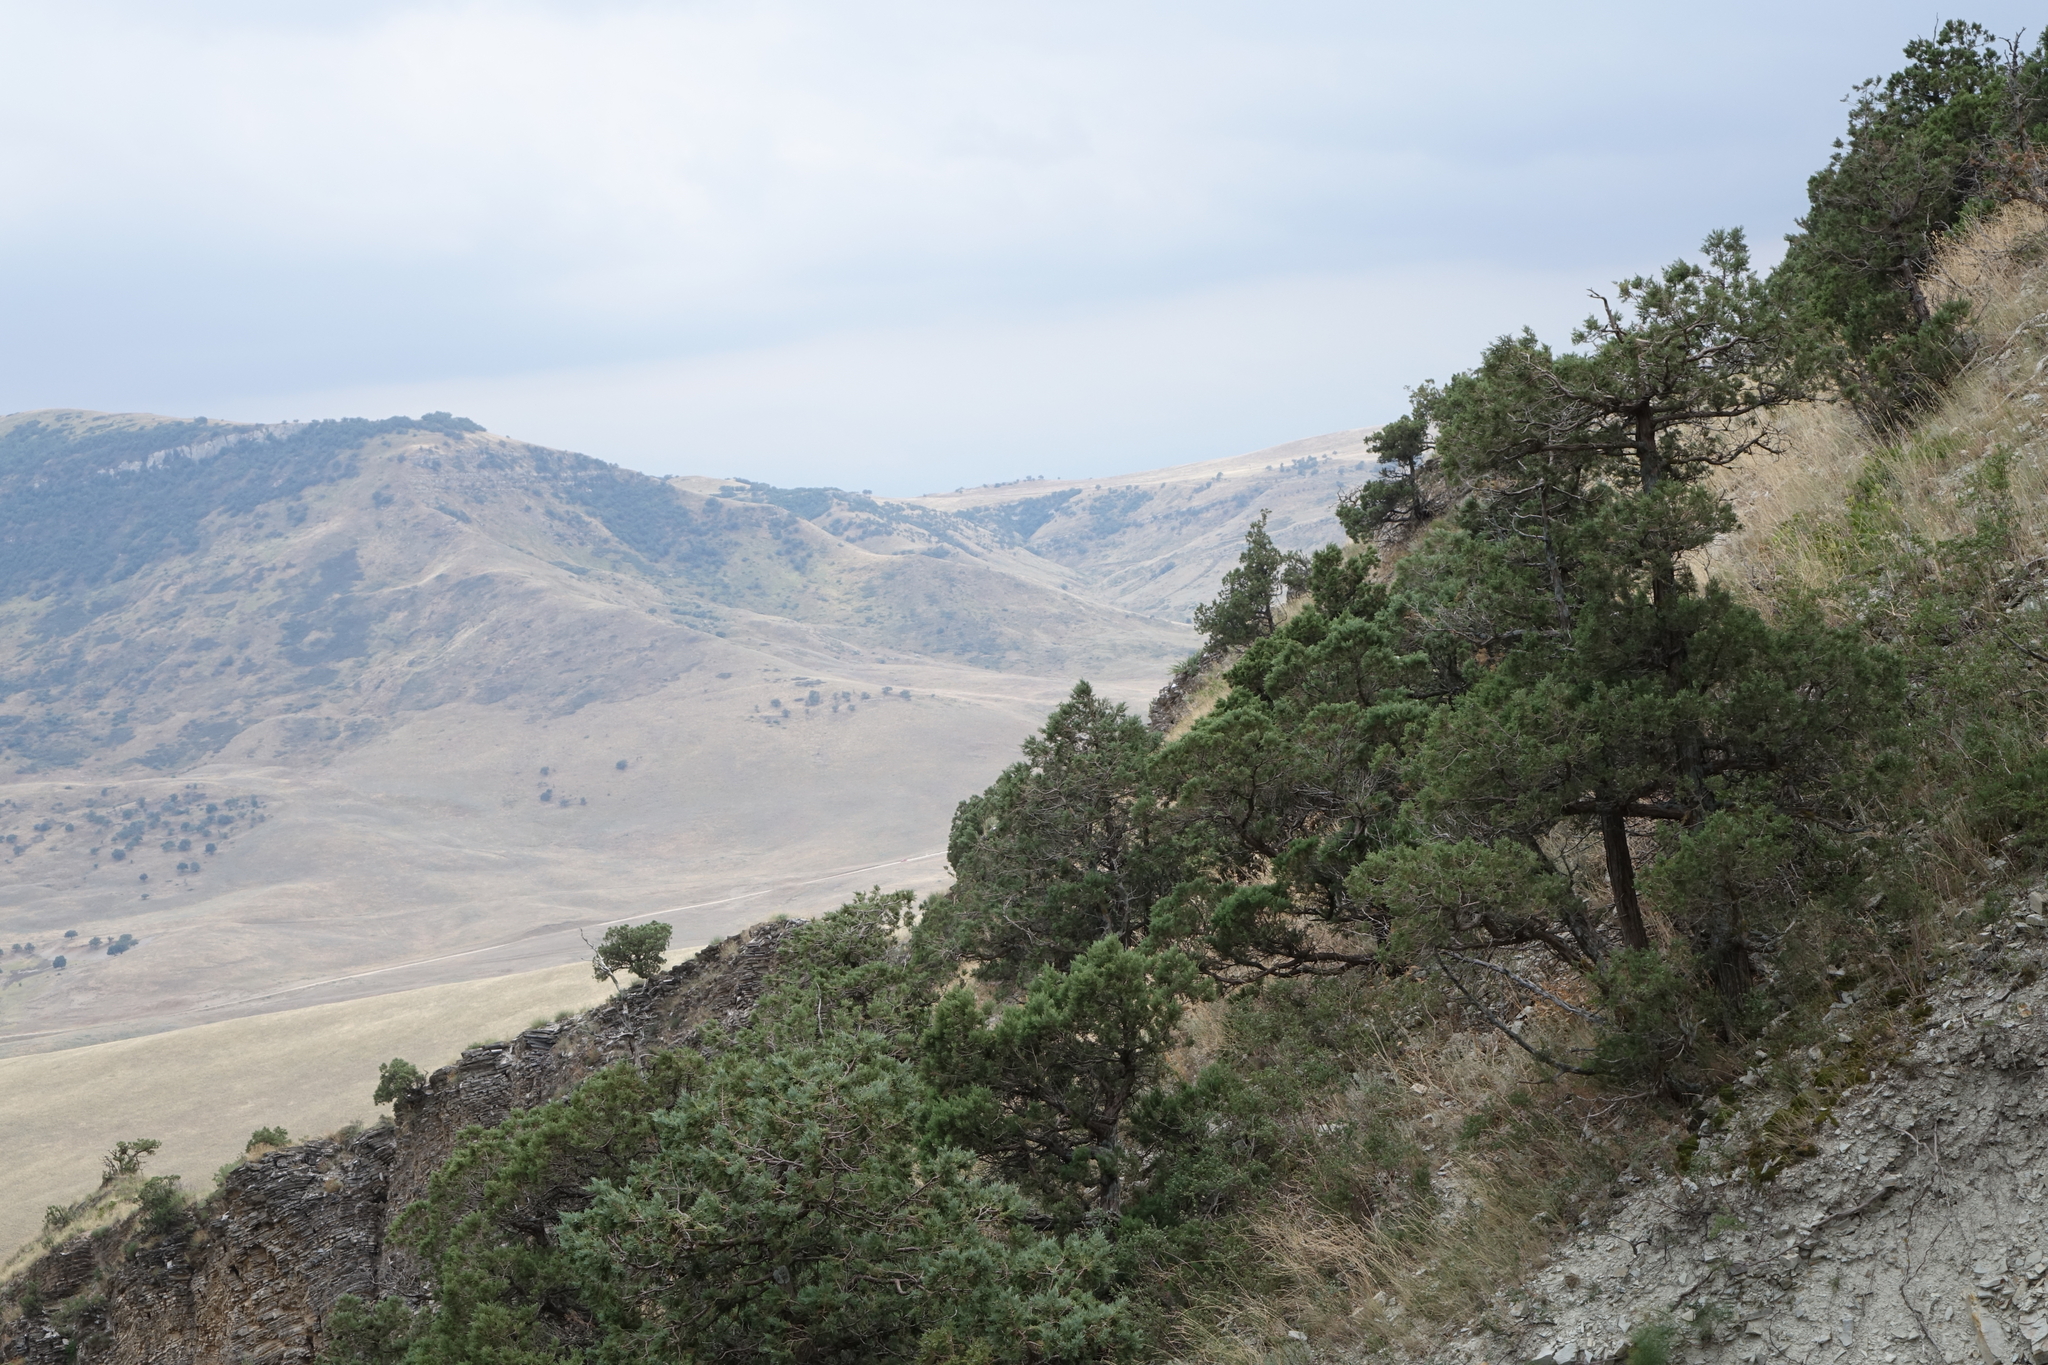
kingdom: Plantae
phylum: Tracheophyta
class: Pinopsida
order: Pinales
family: Cupressaceae
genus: Juniperus
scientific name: Juniperus excelsa
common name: Crimean juniper
